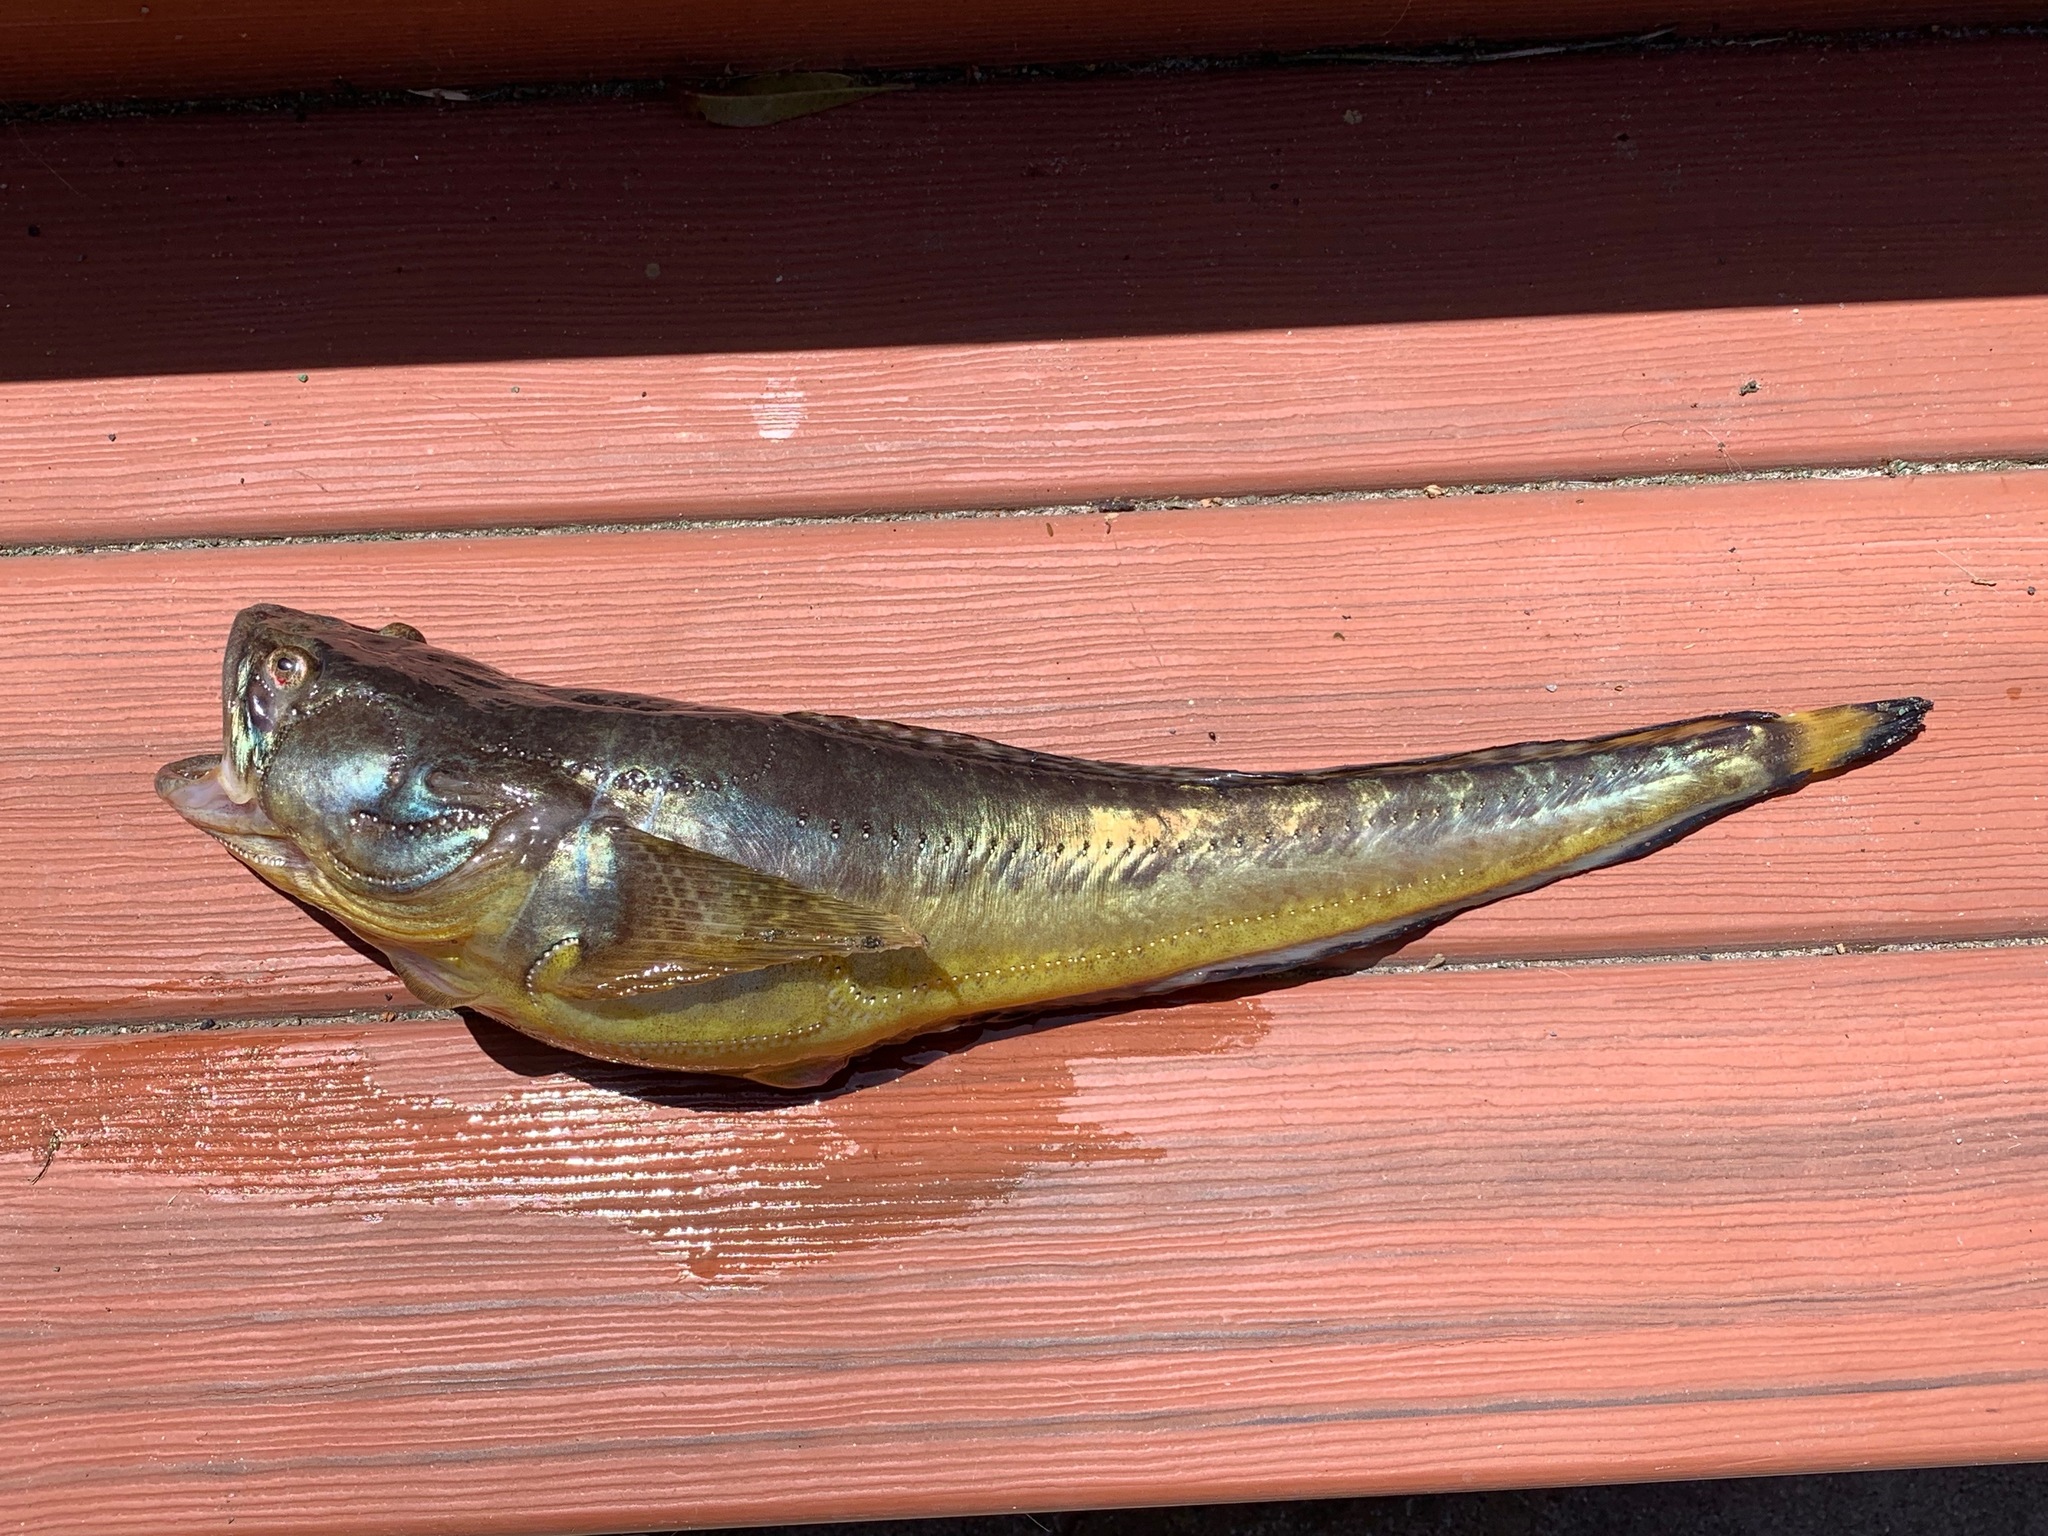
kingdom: Animalia
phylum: Chordata
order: Batrachoidiformes
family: Batrachoididae
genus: Porichthys
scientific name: Porichthys myriaster
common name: Specklefin midshipman
